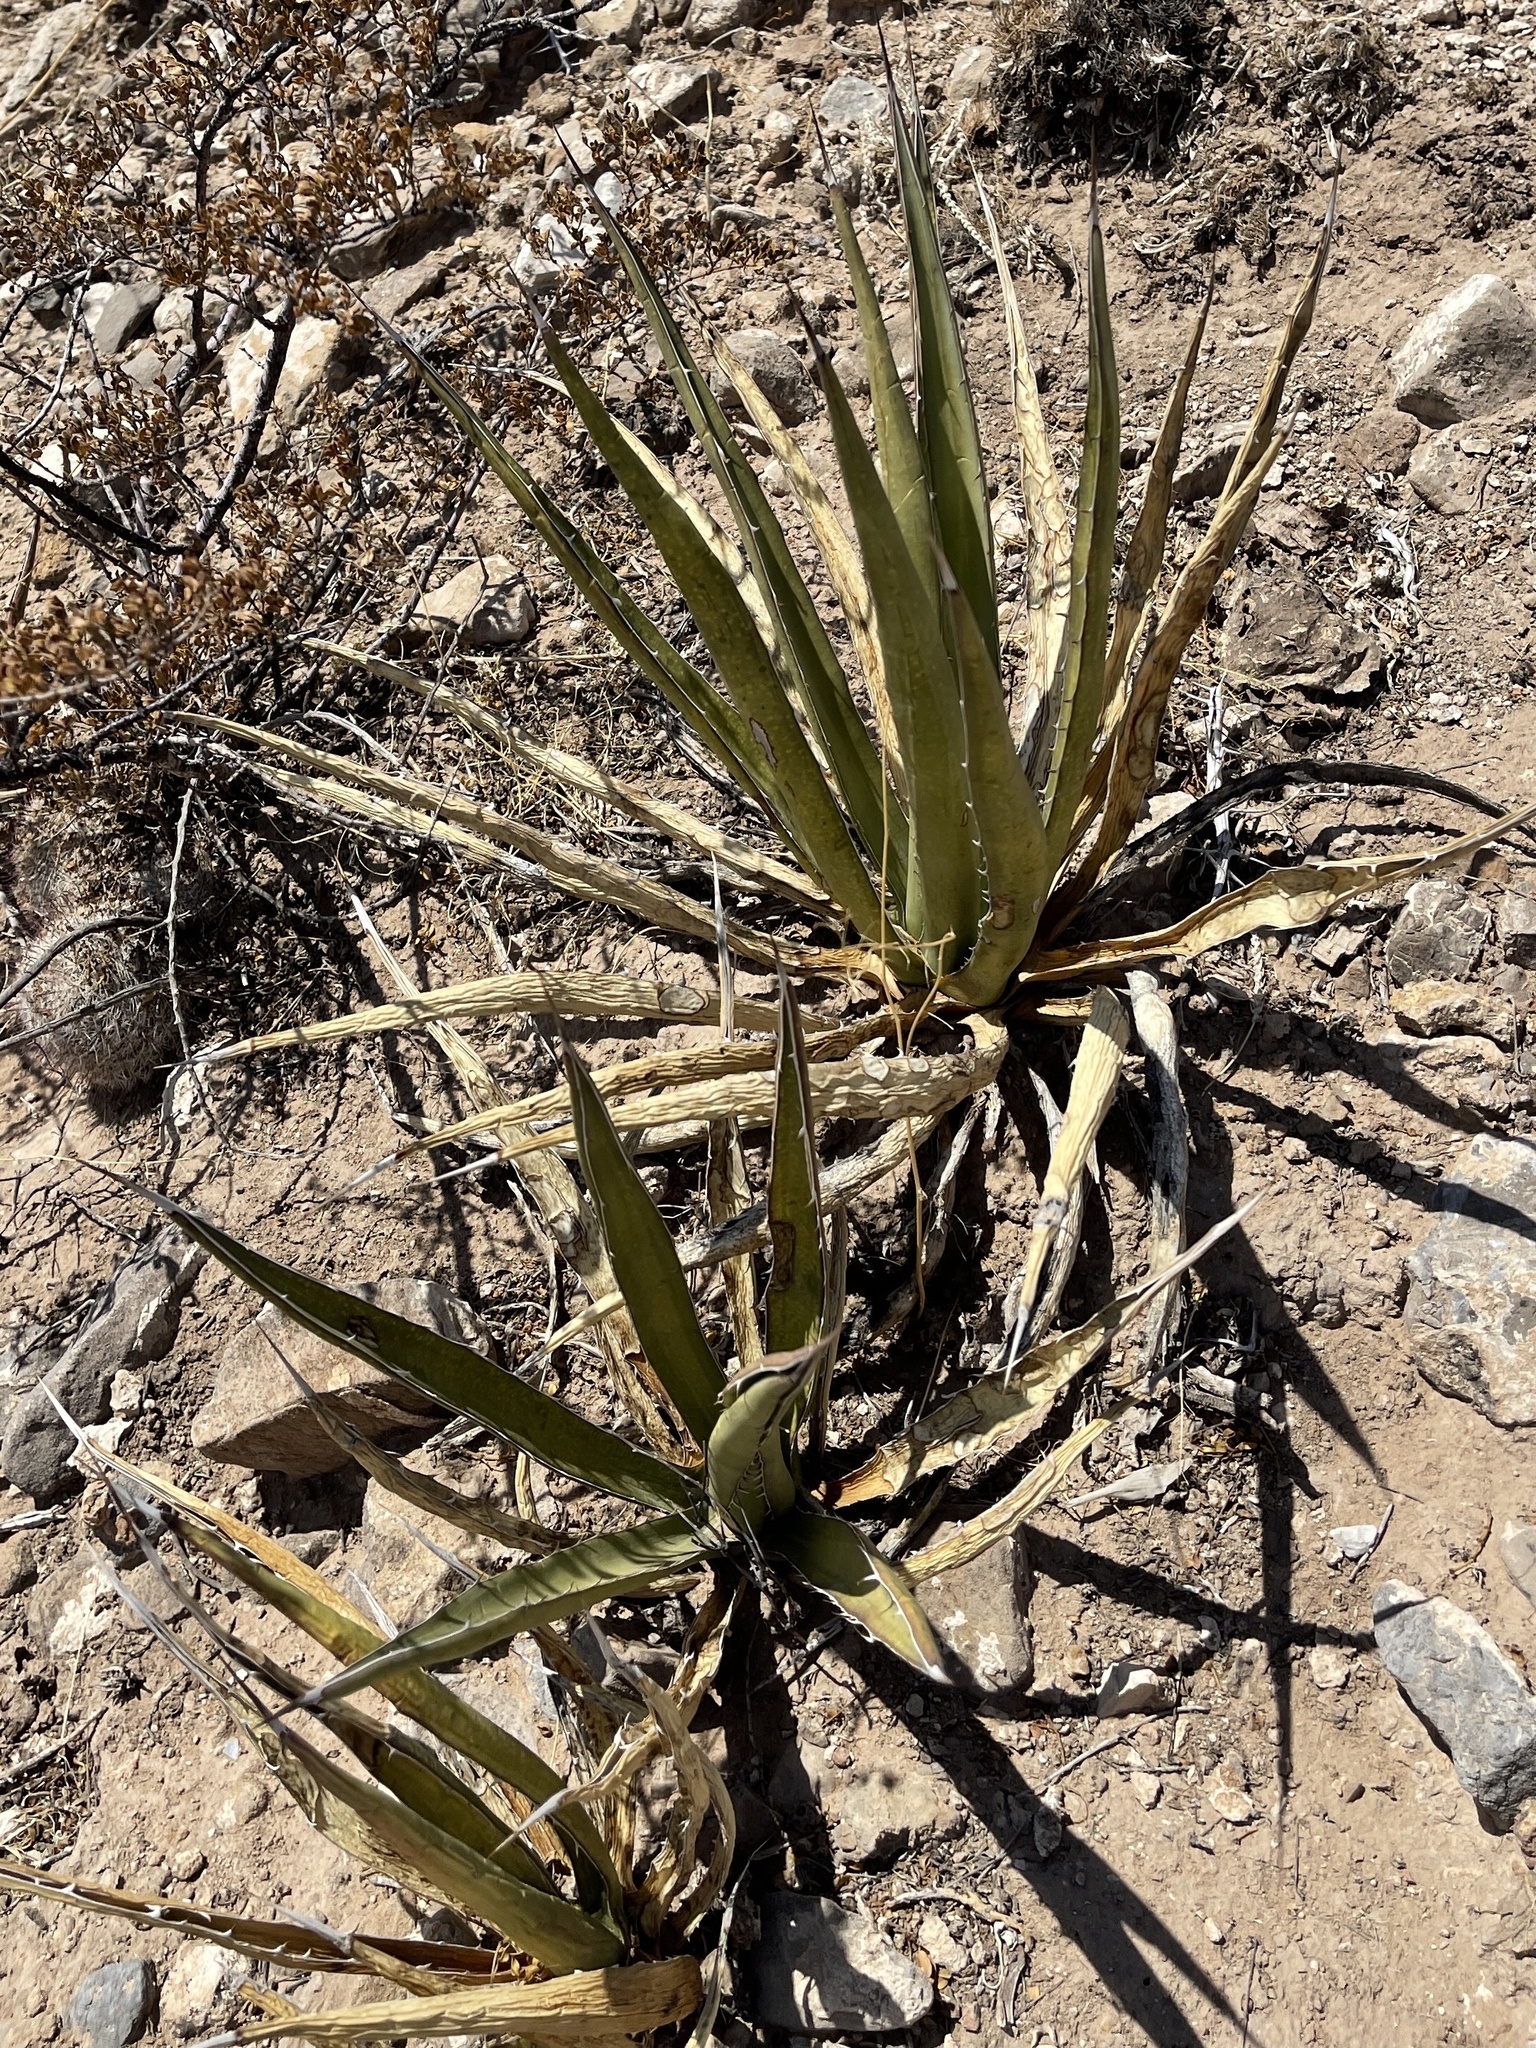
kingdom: Plantae
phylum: Tracheophyta
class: Liliopsida
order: Asparagales
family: Asparagaceae
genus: Agave
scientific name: Agave lechuguilla
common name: Lecheguilla agave
